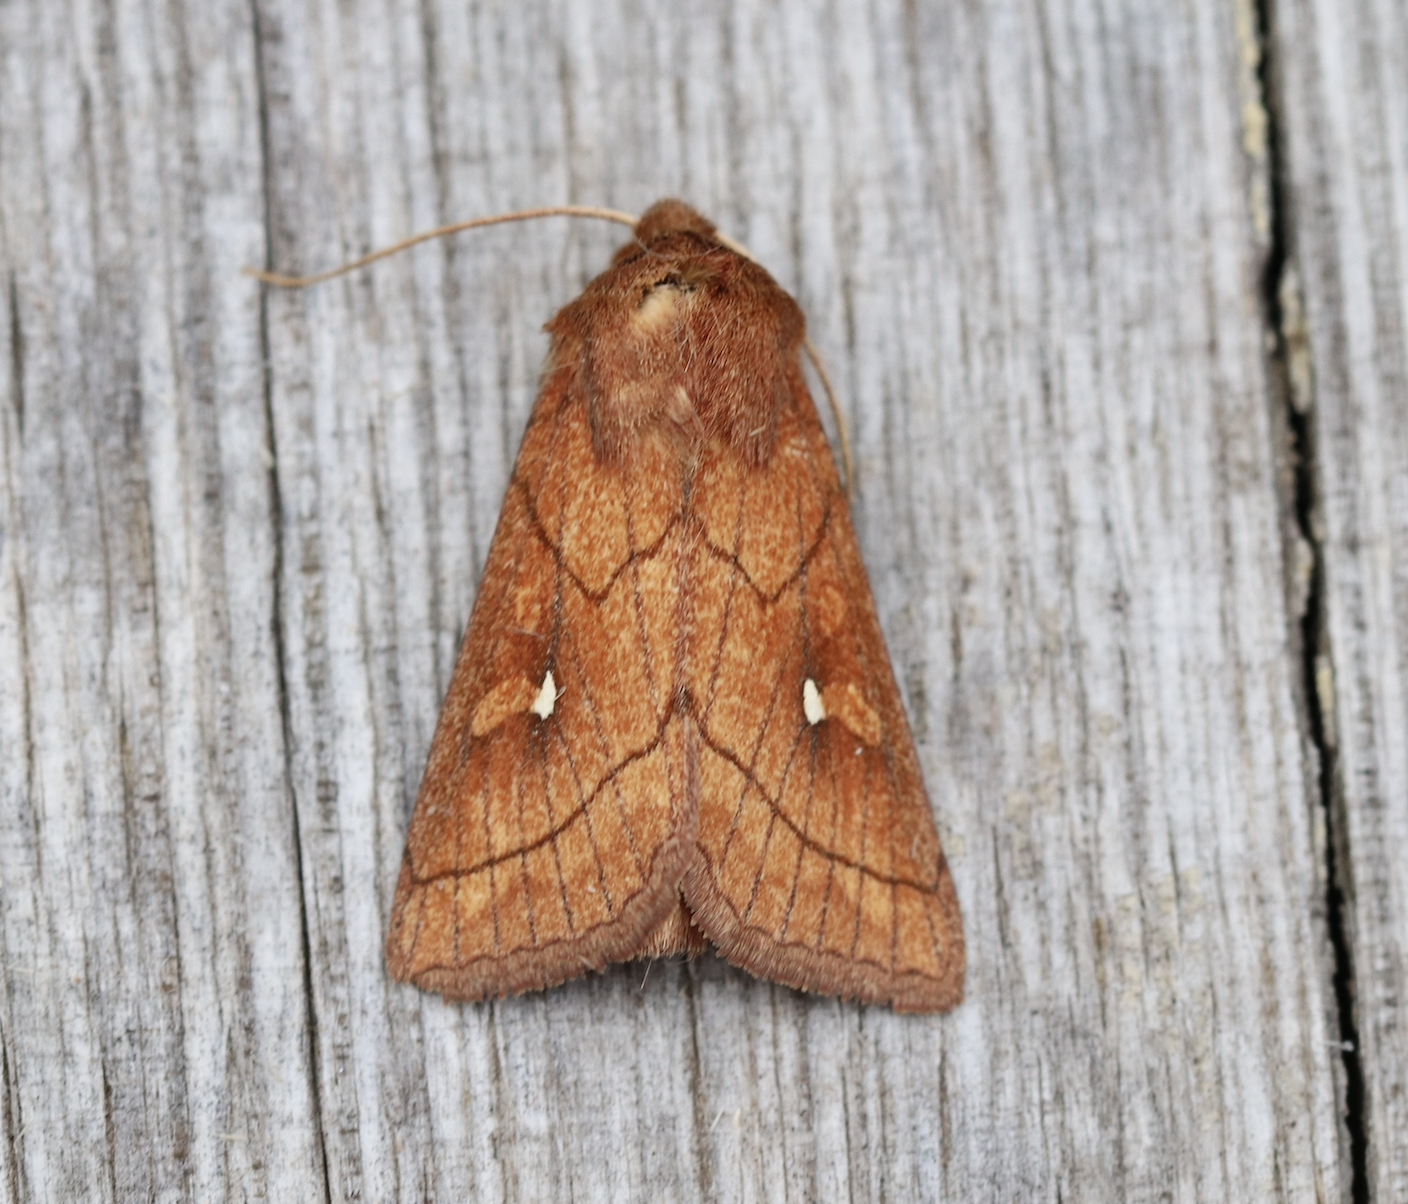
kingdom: Animalia
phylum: Arthropoda
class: Insecta
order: Lepidoptera
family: Noctuidae
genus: Mythimna
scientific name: Mythimna conigera
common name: Brown-line bright-eye
